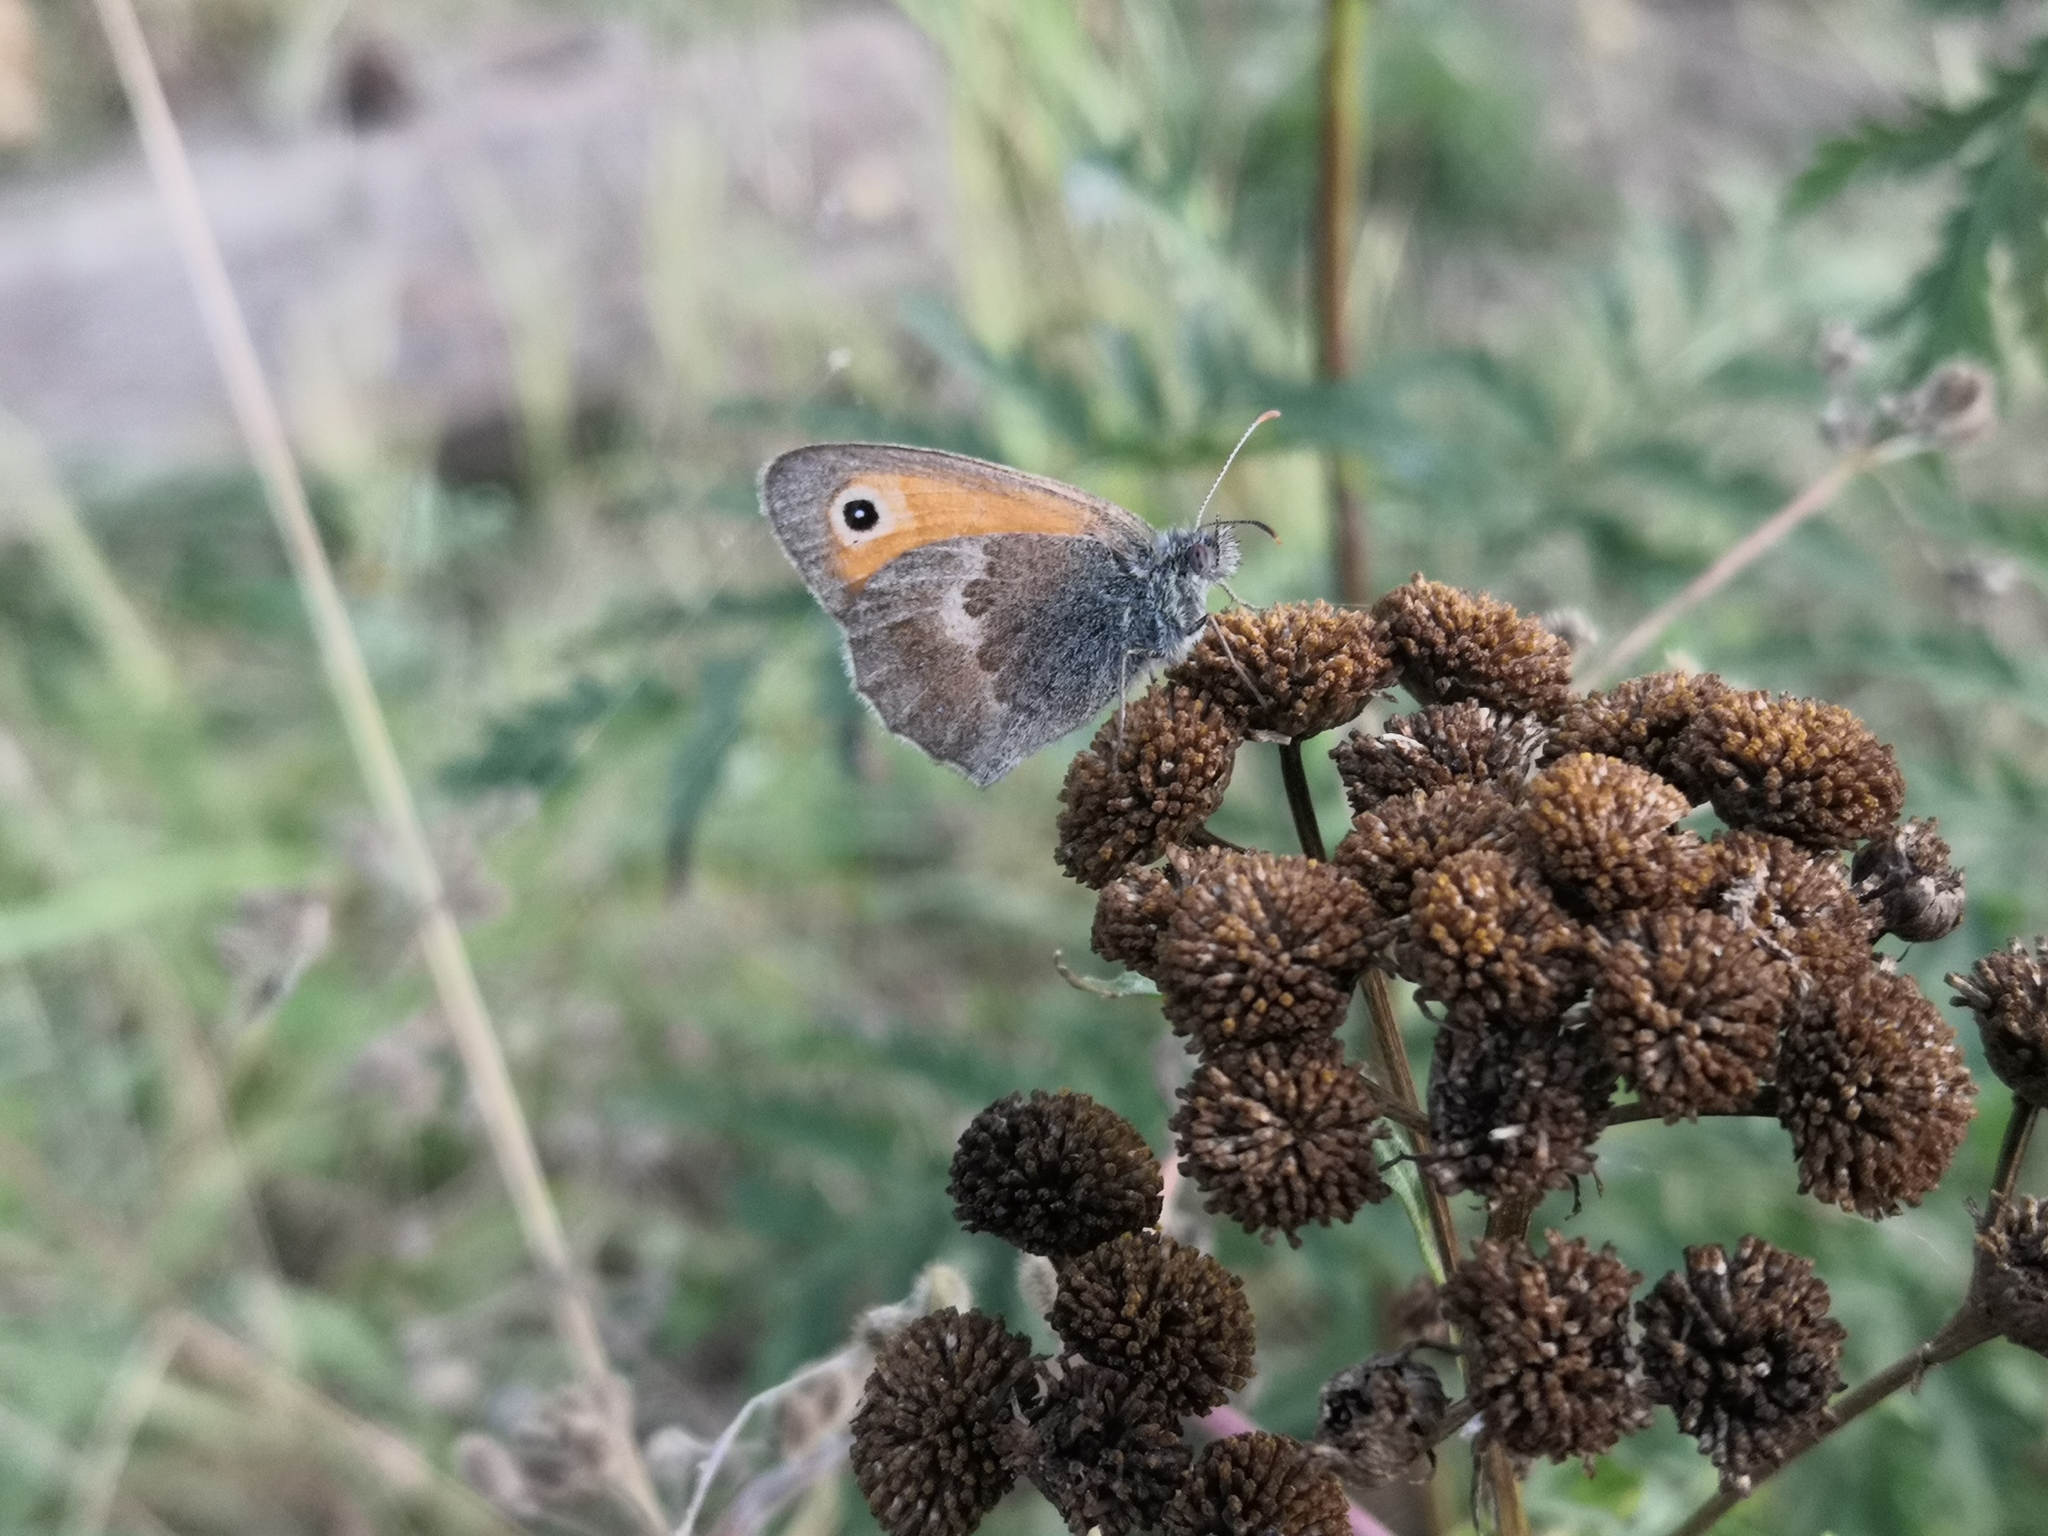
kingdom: Animalia
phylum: Arthropoda
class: Insecta
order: Lepidoptera
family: Nymphalidae
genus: Coenonympha
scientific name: Coenonympha pamphilus
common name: Small heath
